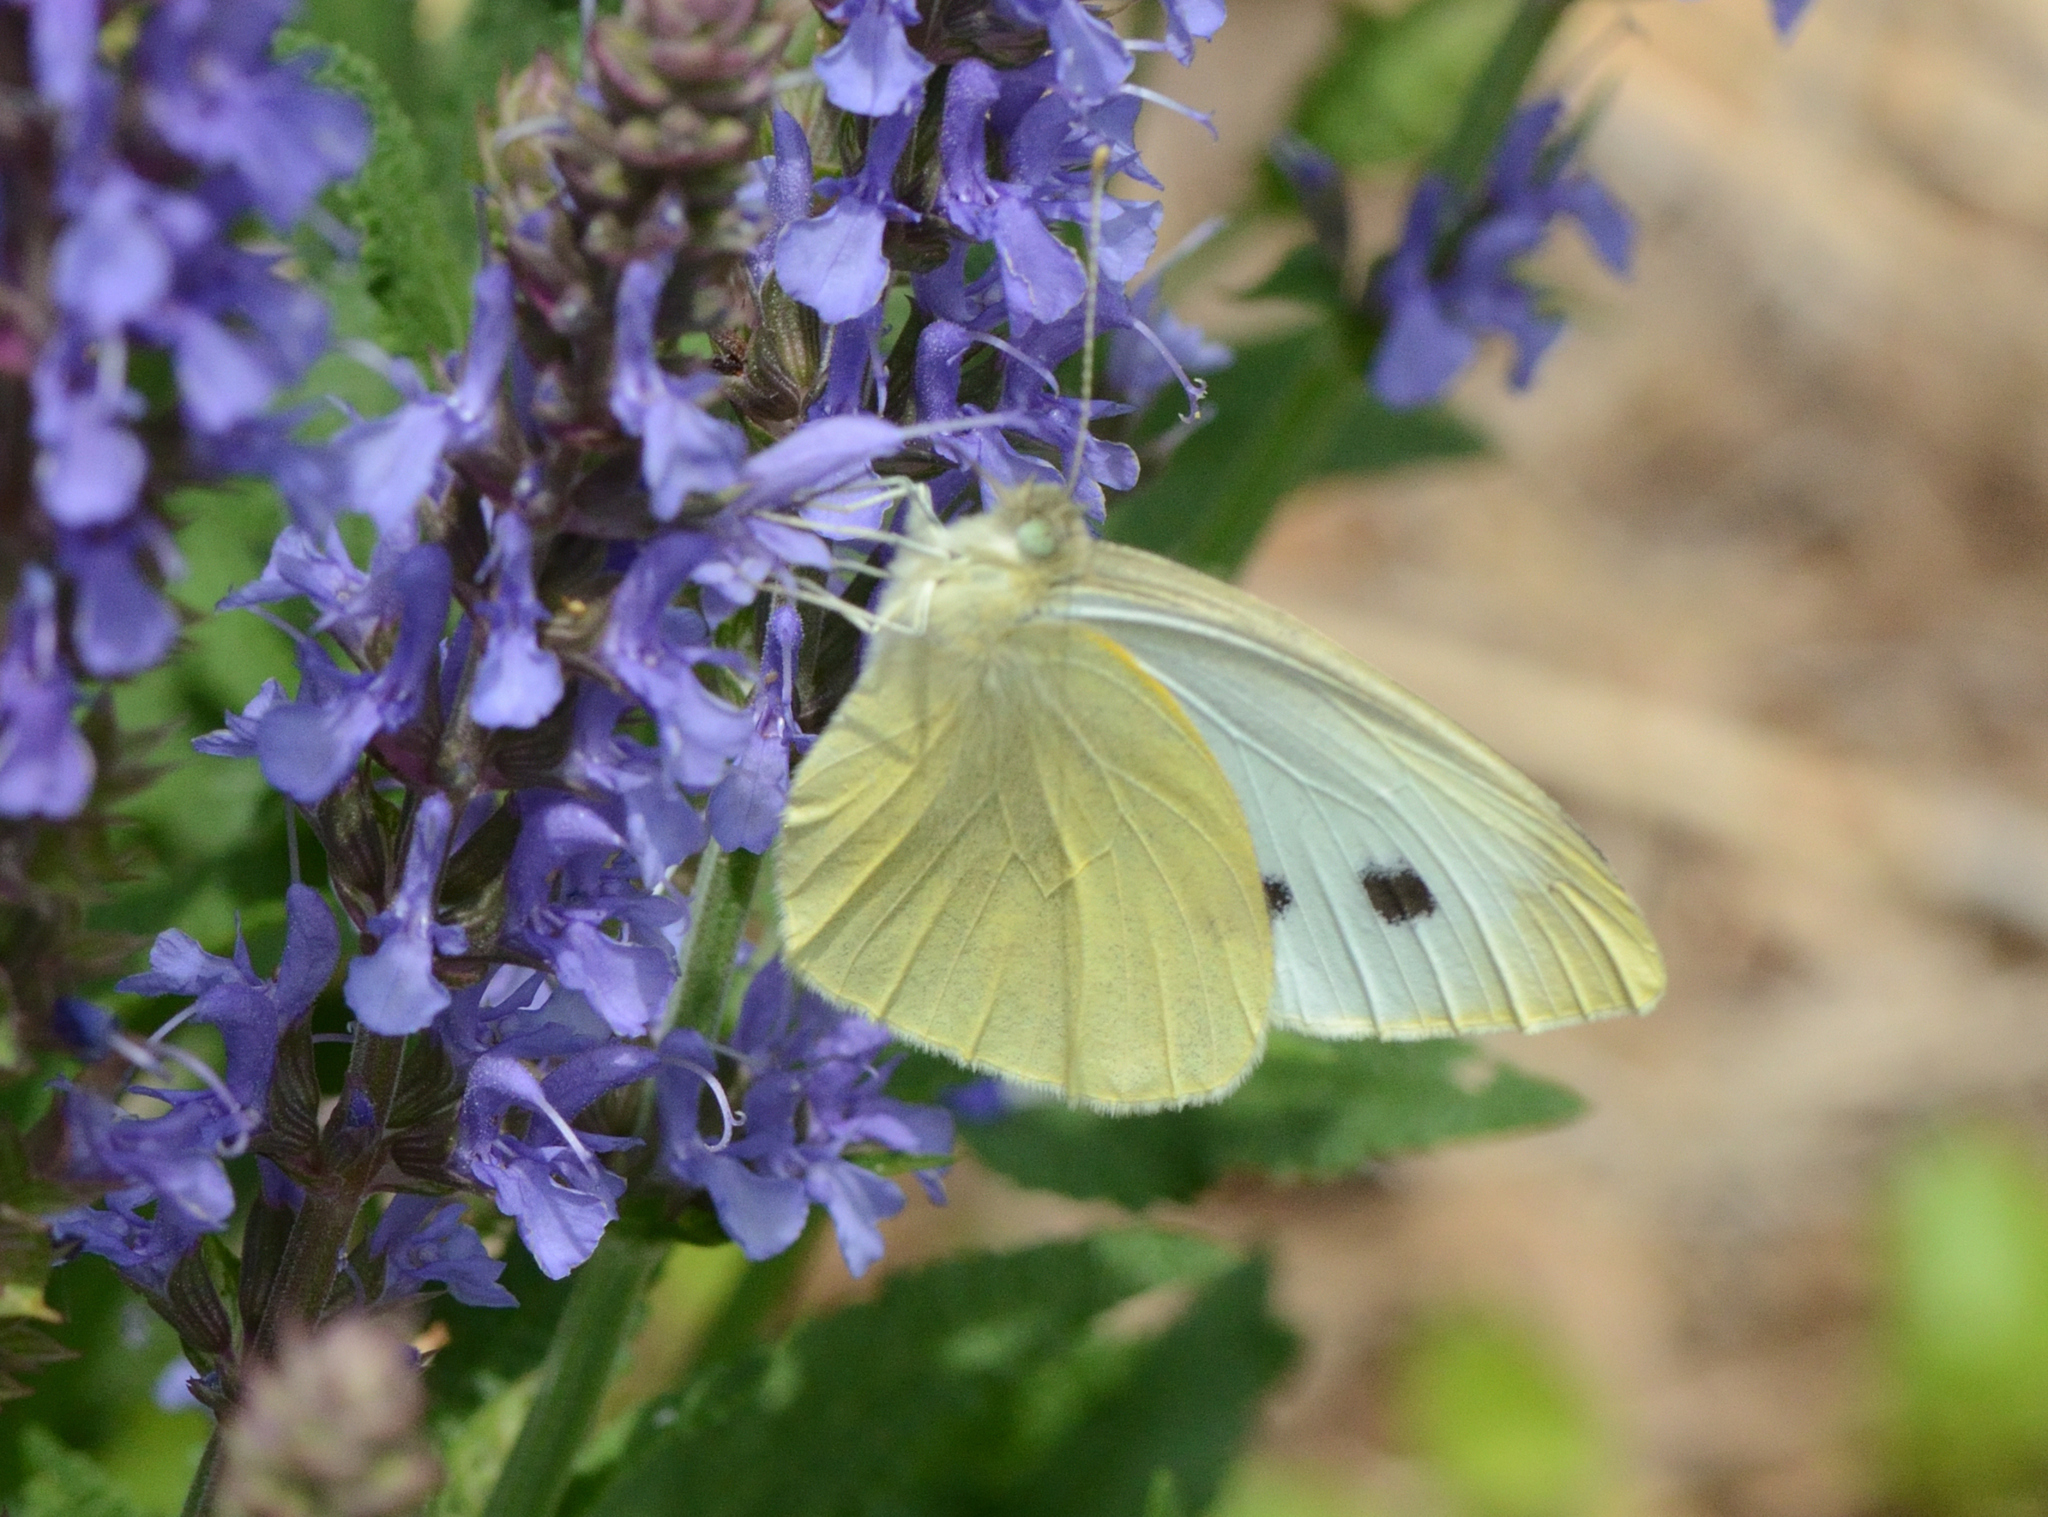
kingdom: Animalia
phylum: Arthropoda
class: Insecta
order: Lepidoptera
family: Pieridae
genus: Pieris
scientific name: Pieris rapae
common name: Small white
